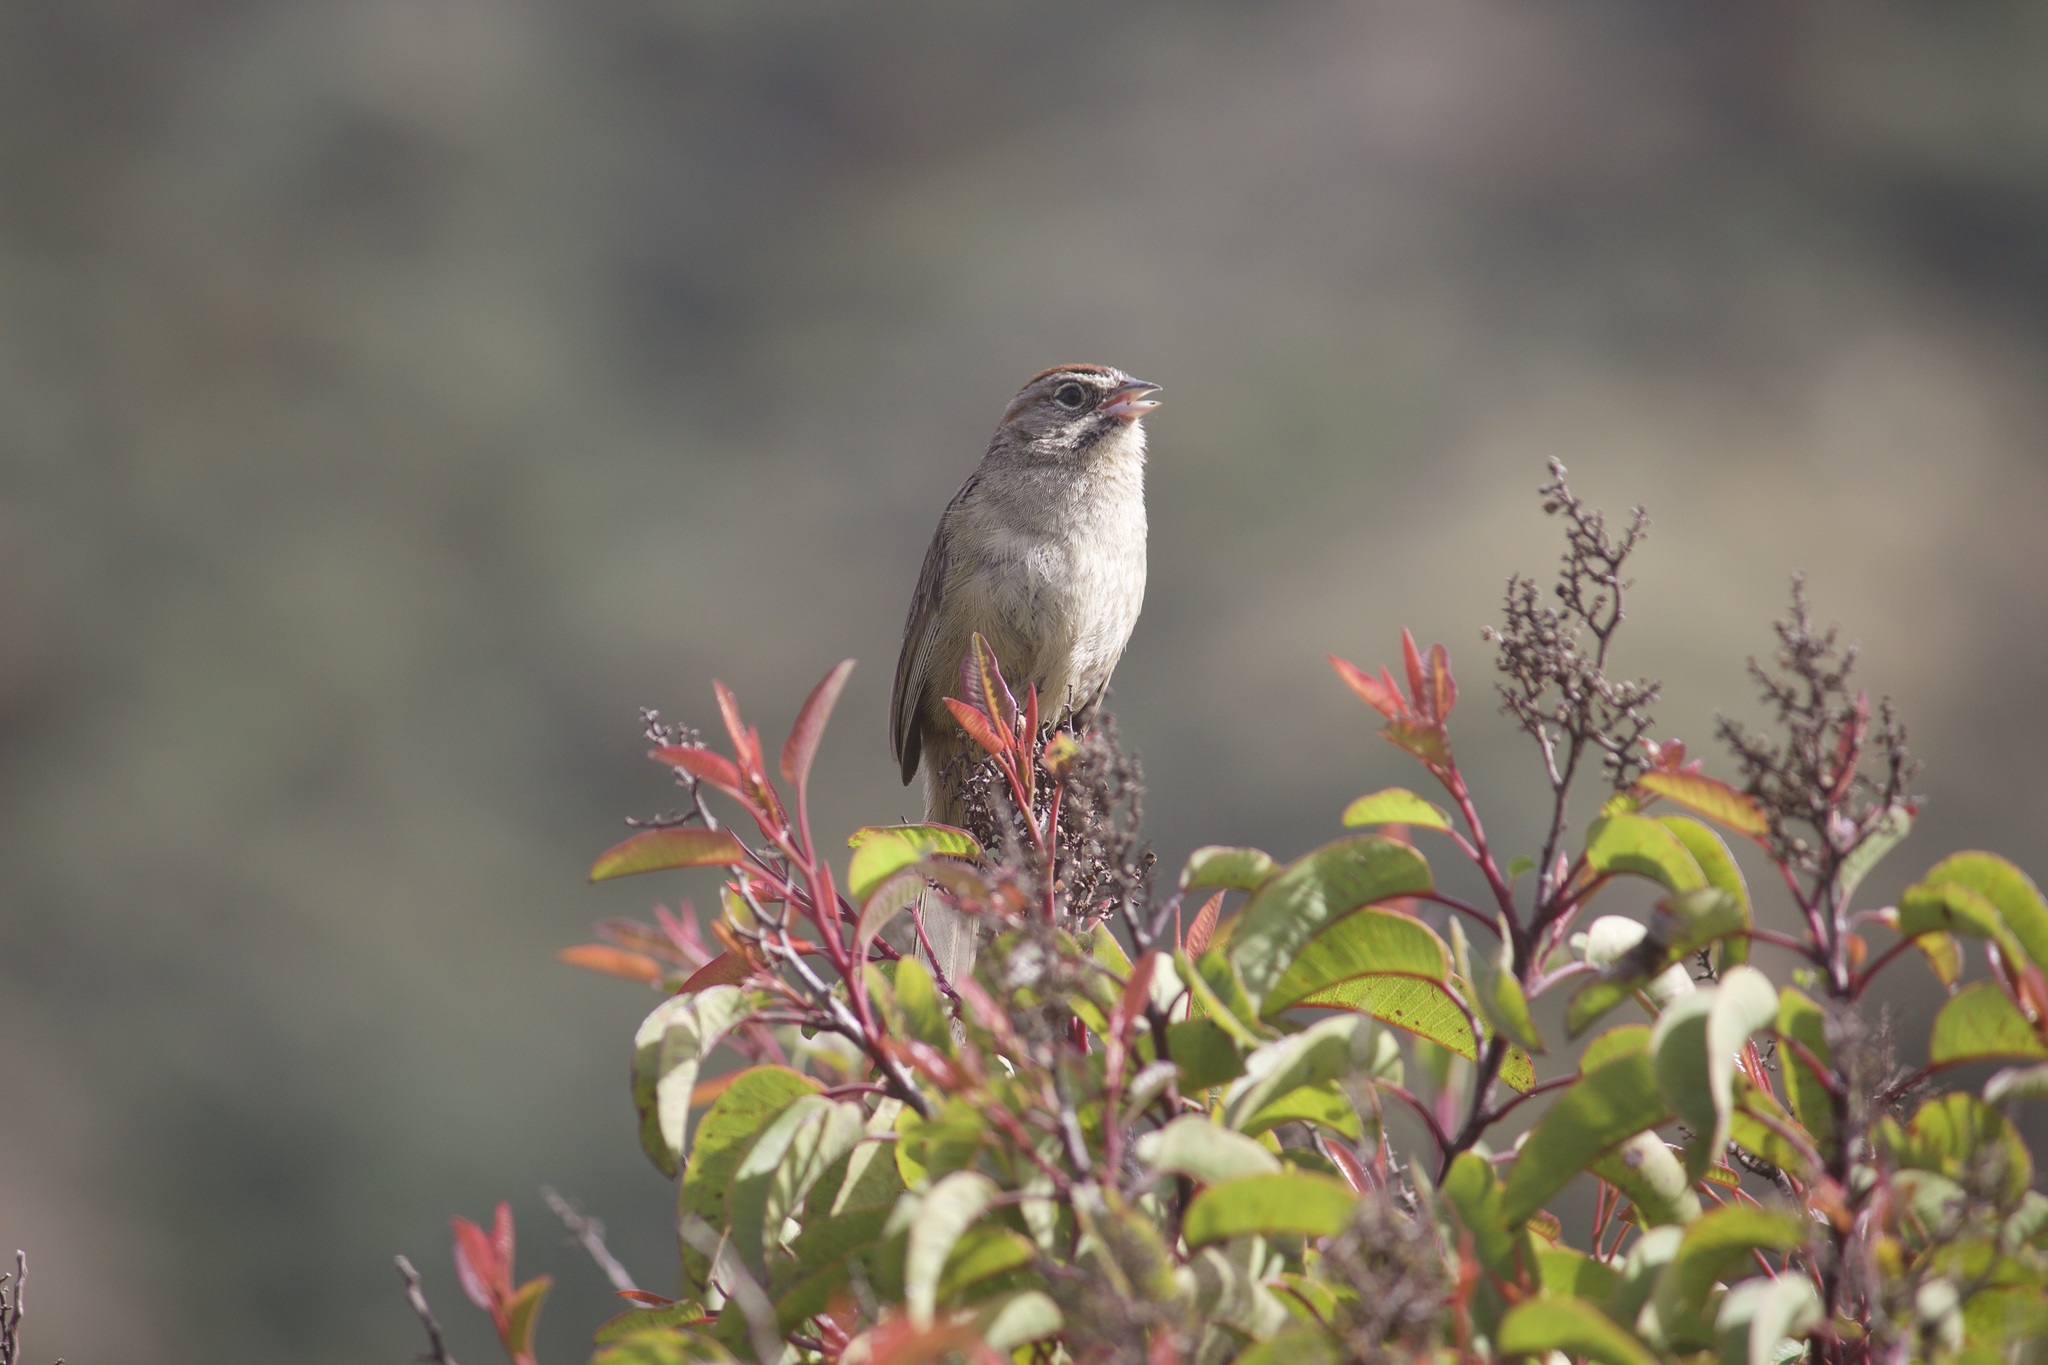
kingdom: Animalia
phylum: Chordata
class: Aves
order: Passeriformes
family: Passerellidae
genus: Aimophila
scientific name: Aimophila ruficeps
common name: Rufous-crowned sparrow
